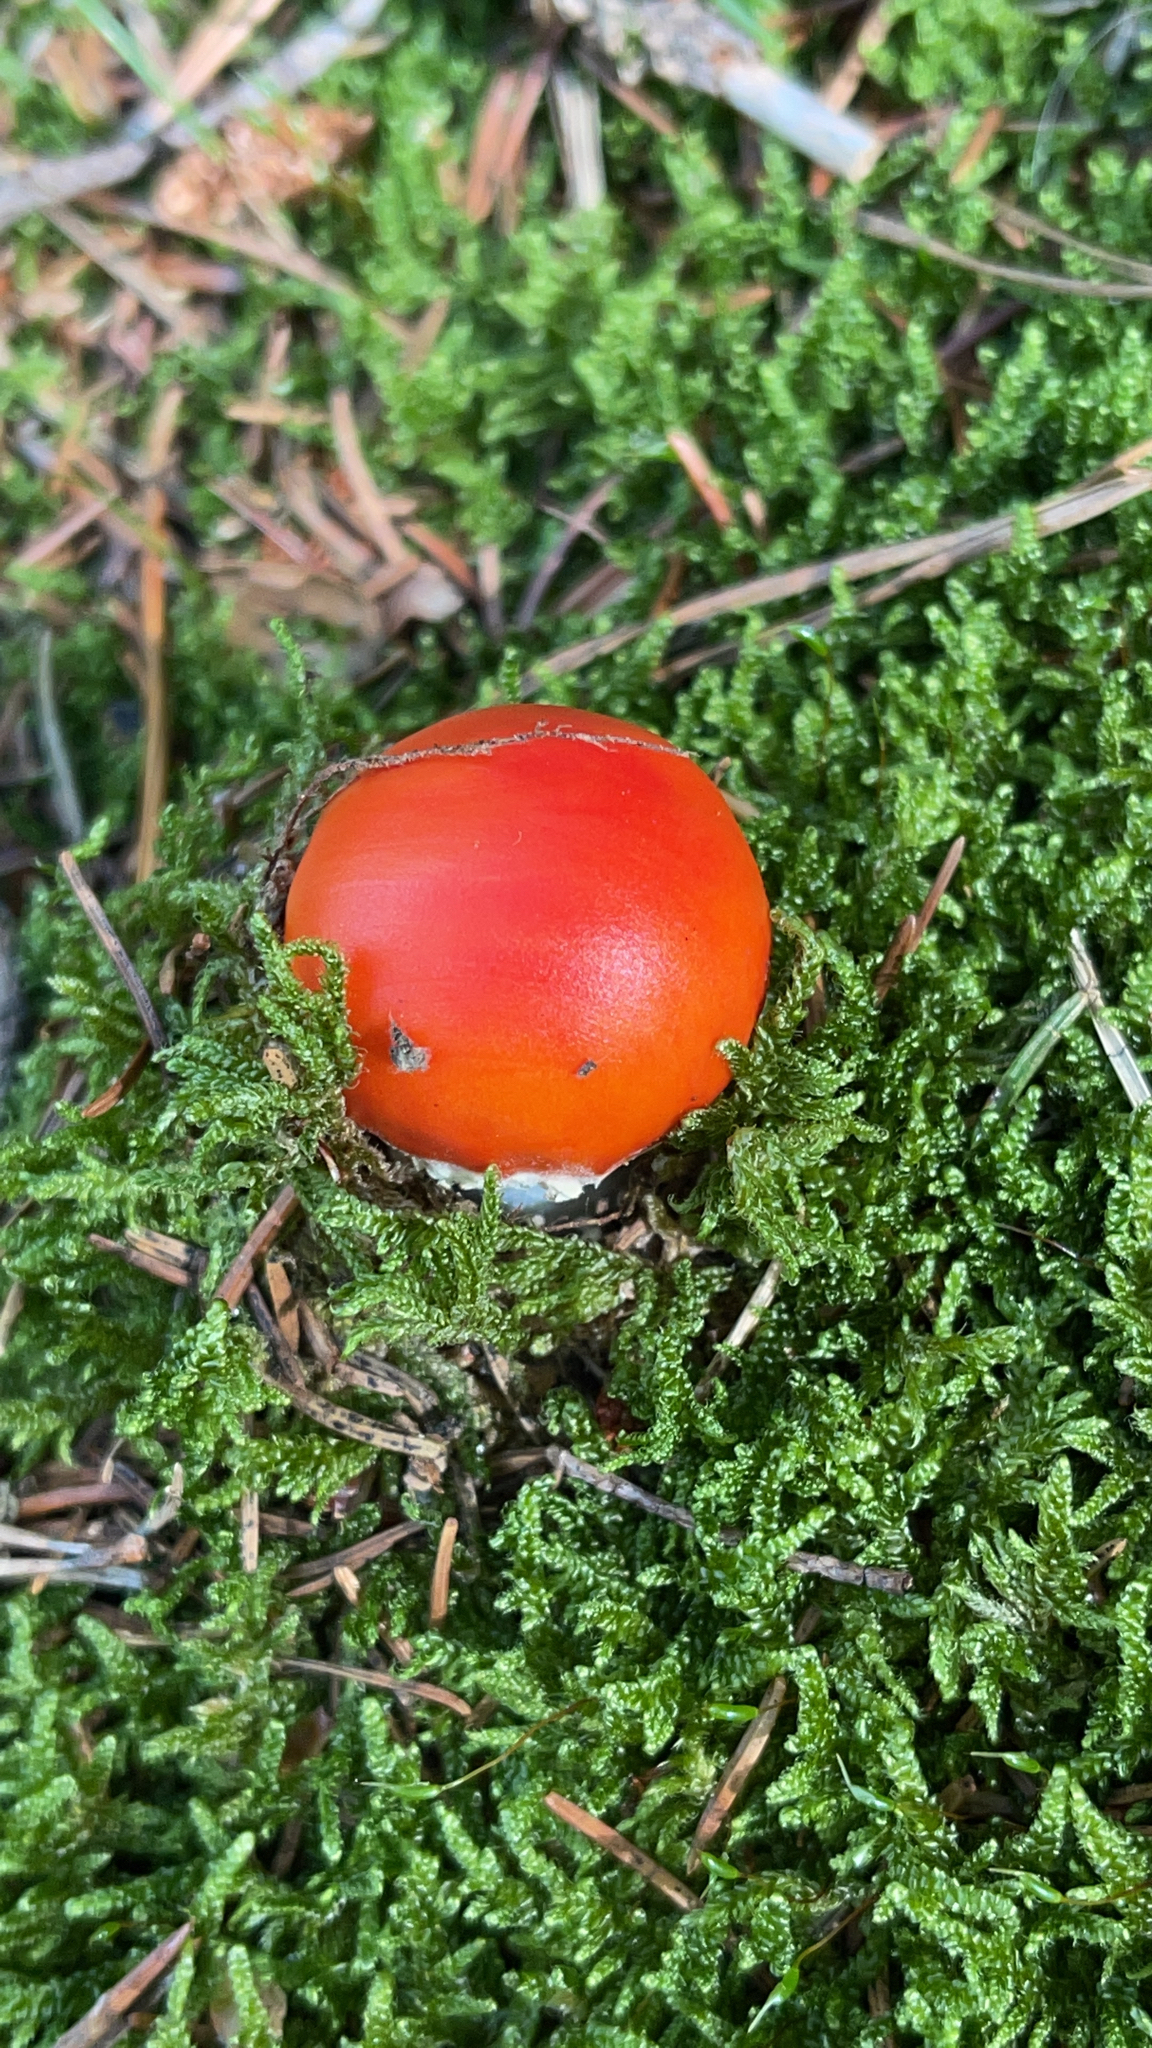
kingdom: Fungi
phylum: Basidiomycota
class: Agaricomycetes
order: Agaricales
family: Amanitaceae
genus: Amanita
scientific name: Amanita muscaria
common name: Fly agaric
